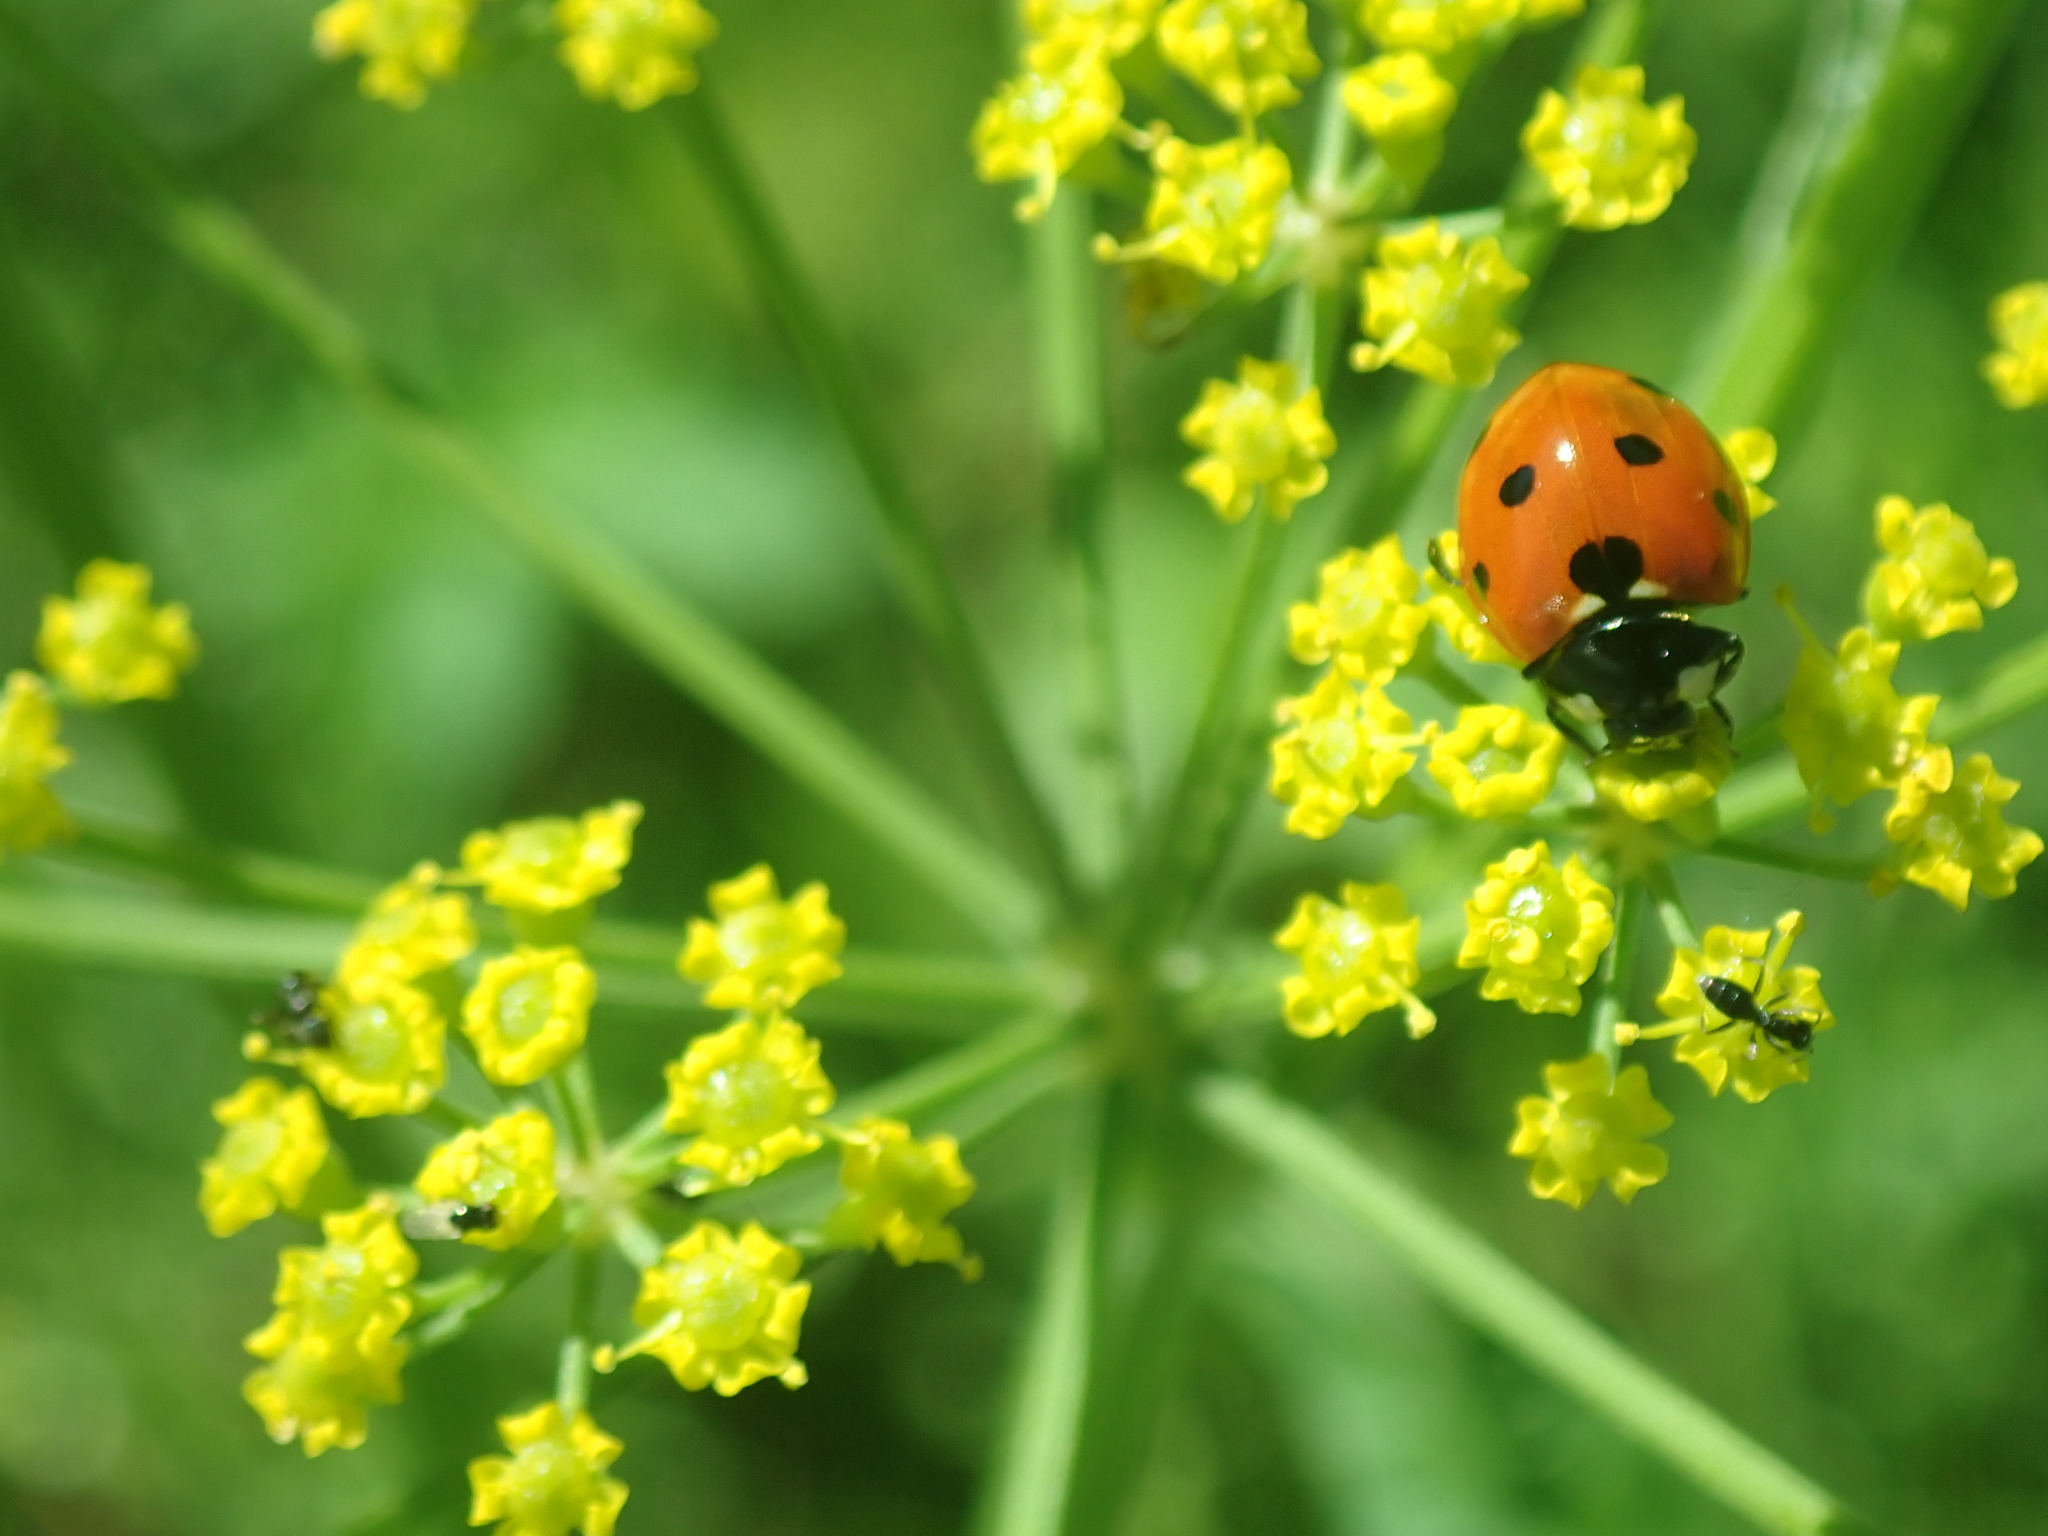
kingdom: Animalia
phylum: Arthropoda
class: Insecta
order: Coleoptera
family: Coccinellidae
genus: Coccinella
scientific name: Coccinella septempunctata
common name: Sevenspotted lady beetle
